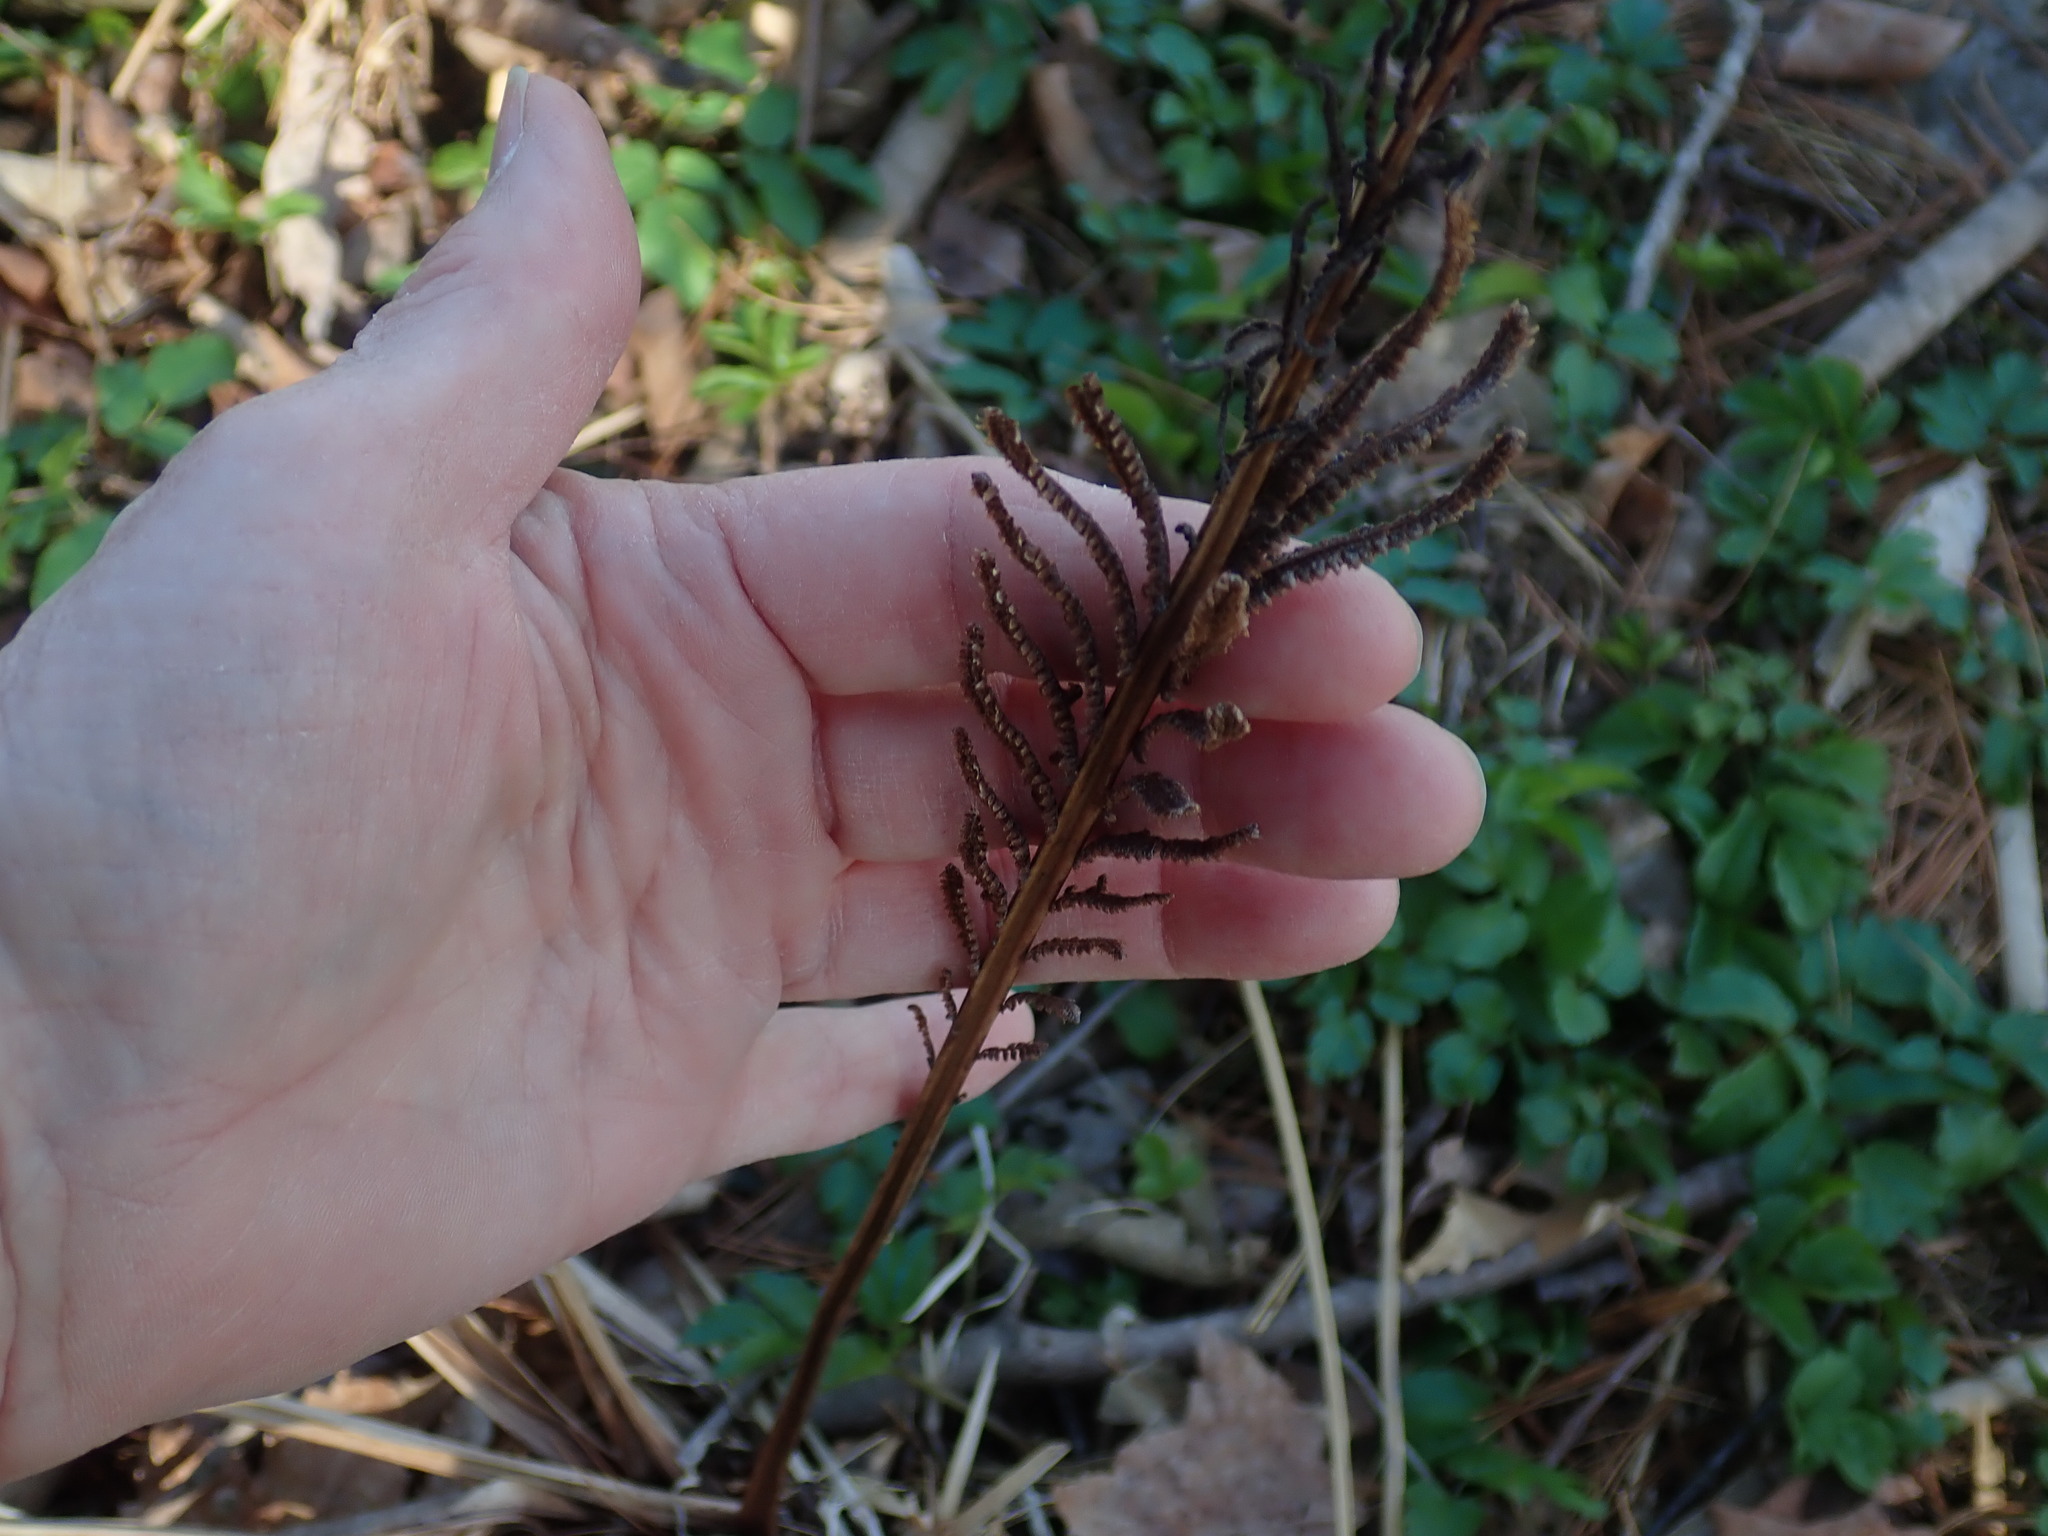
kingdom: Plantae
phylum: Tracheophyta
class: Polypodiopsida
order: Polypodiales
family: Onocleaceae
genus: Matteuccia
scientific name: Matteuccia struthiopteris
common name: Ostrich fern
